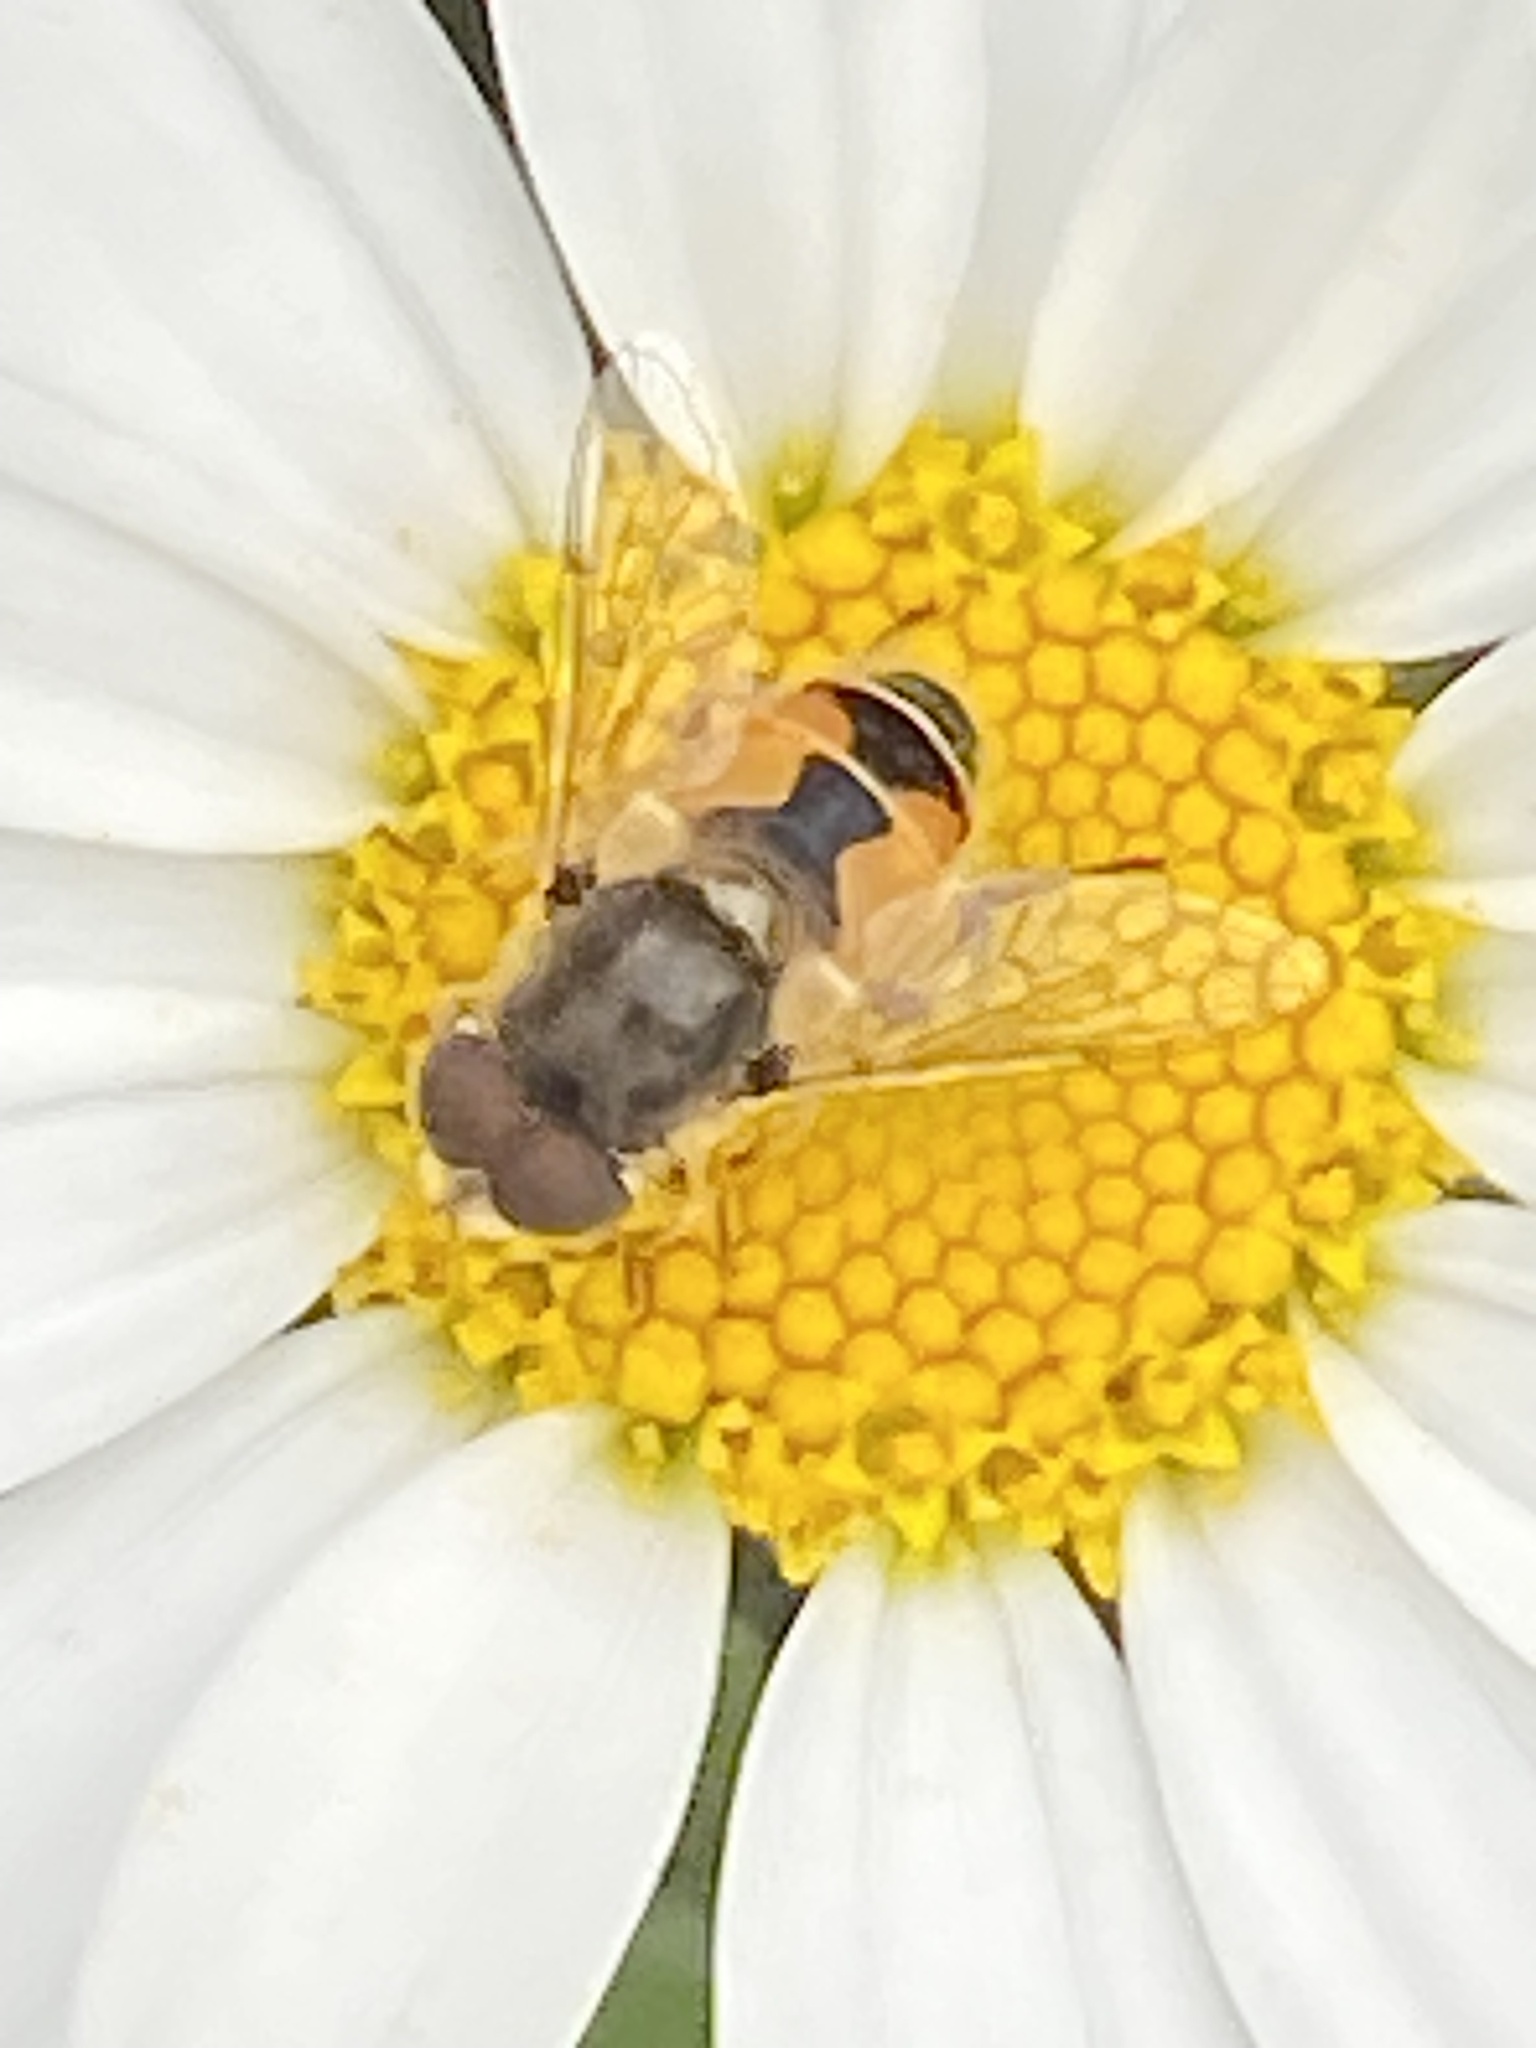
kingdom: Animalia
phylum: Arthropoda
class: Insecta
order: Diptera
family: Syrphidae
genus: Eristalis
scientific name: Eristalis arbustorum
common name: Hover fly
